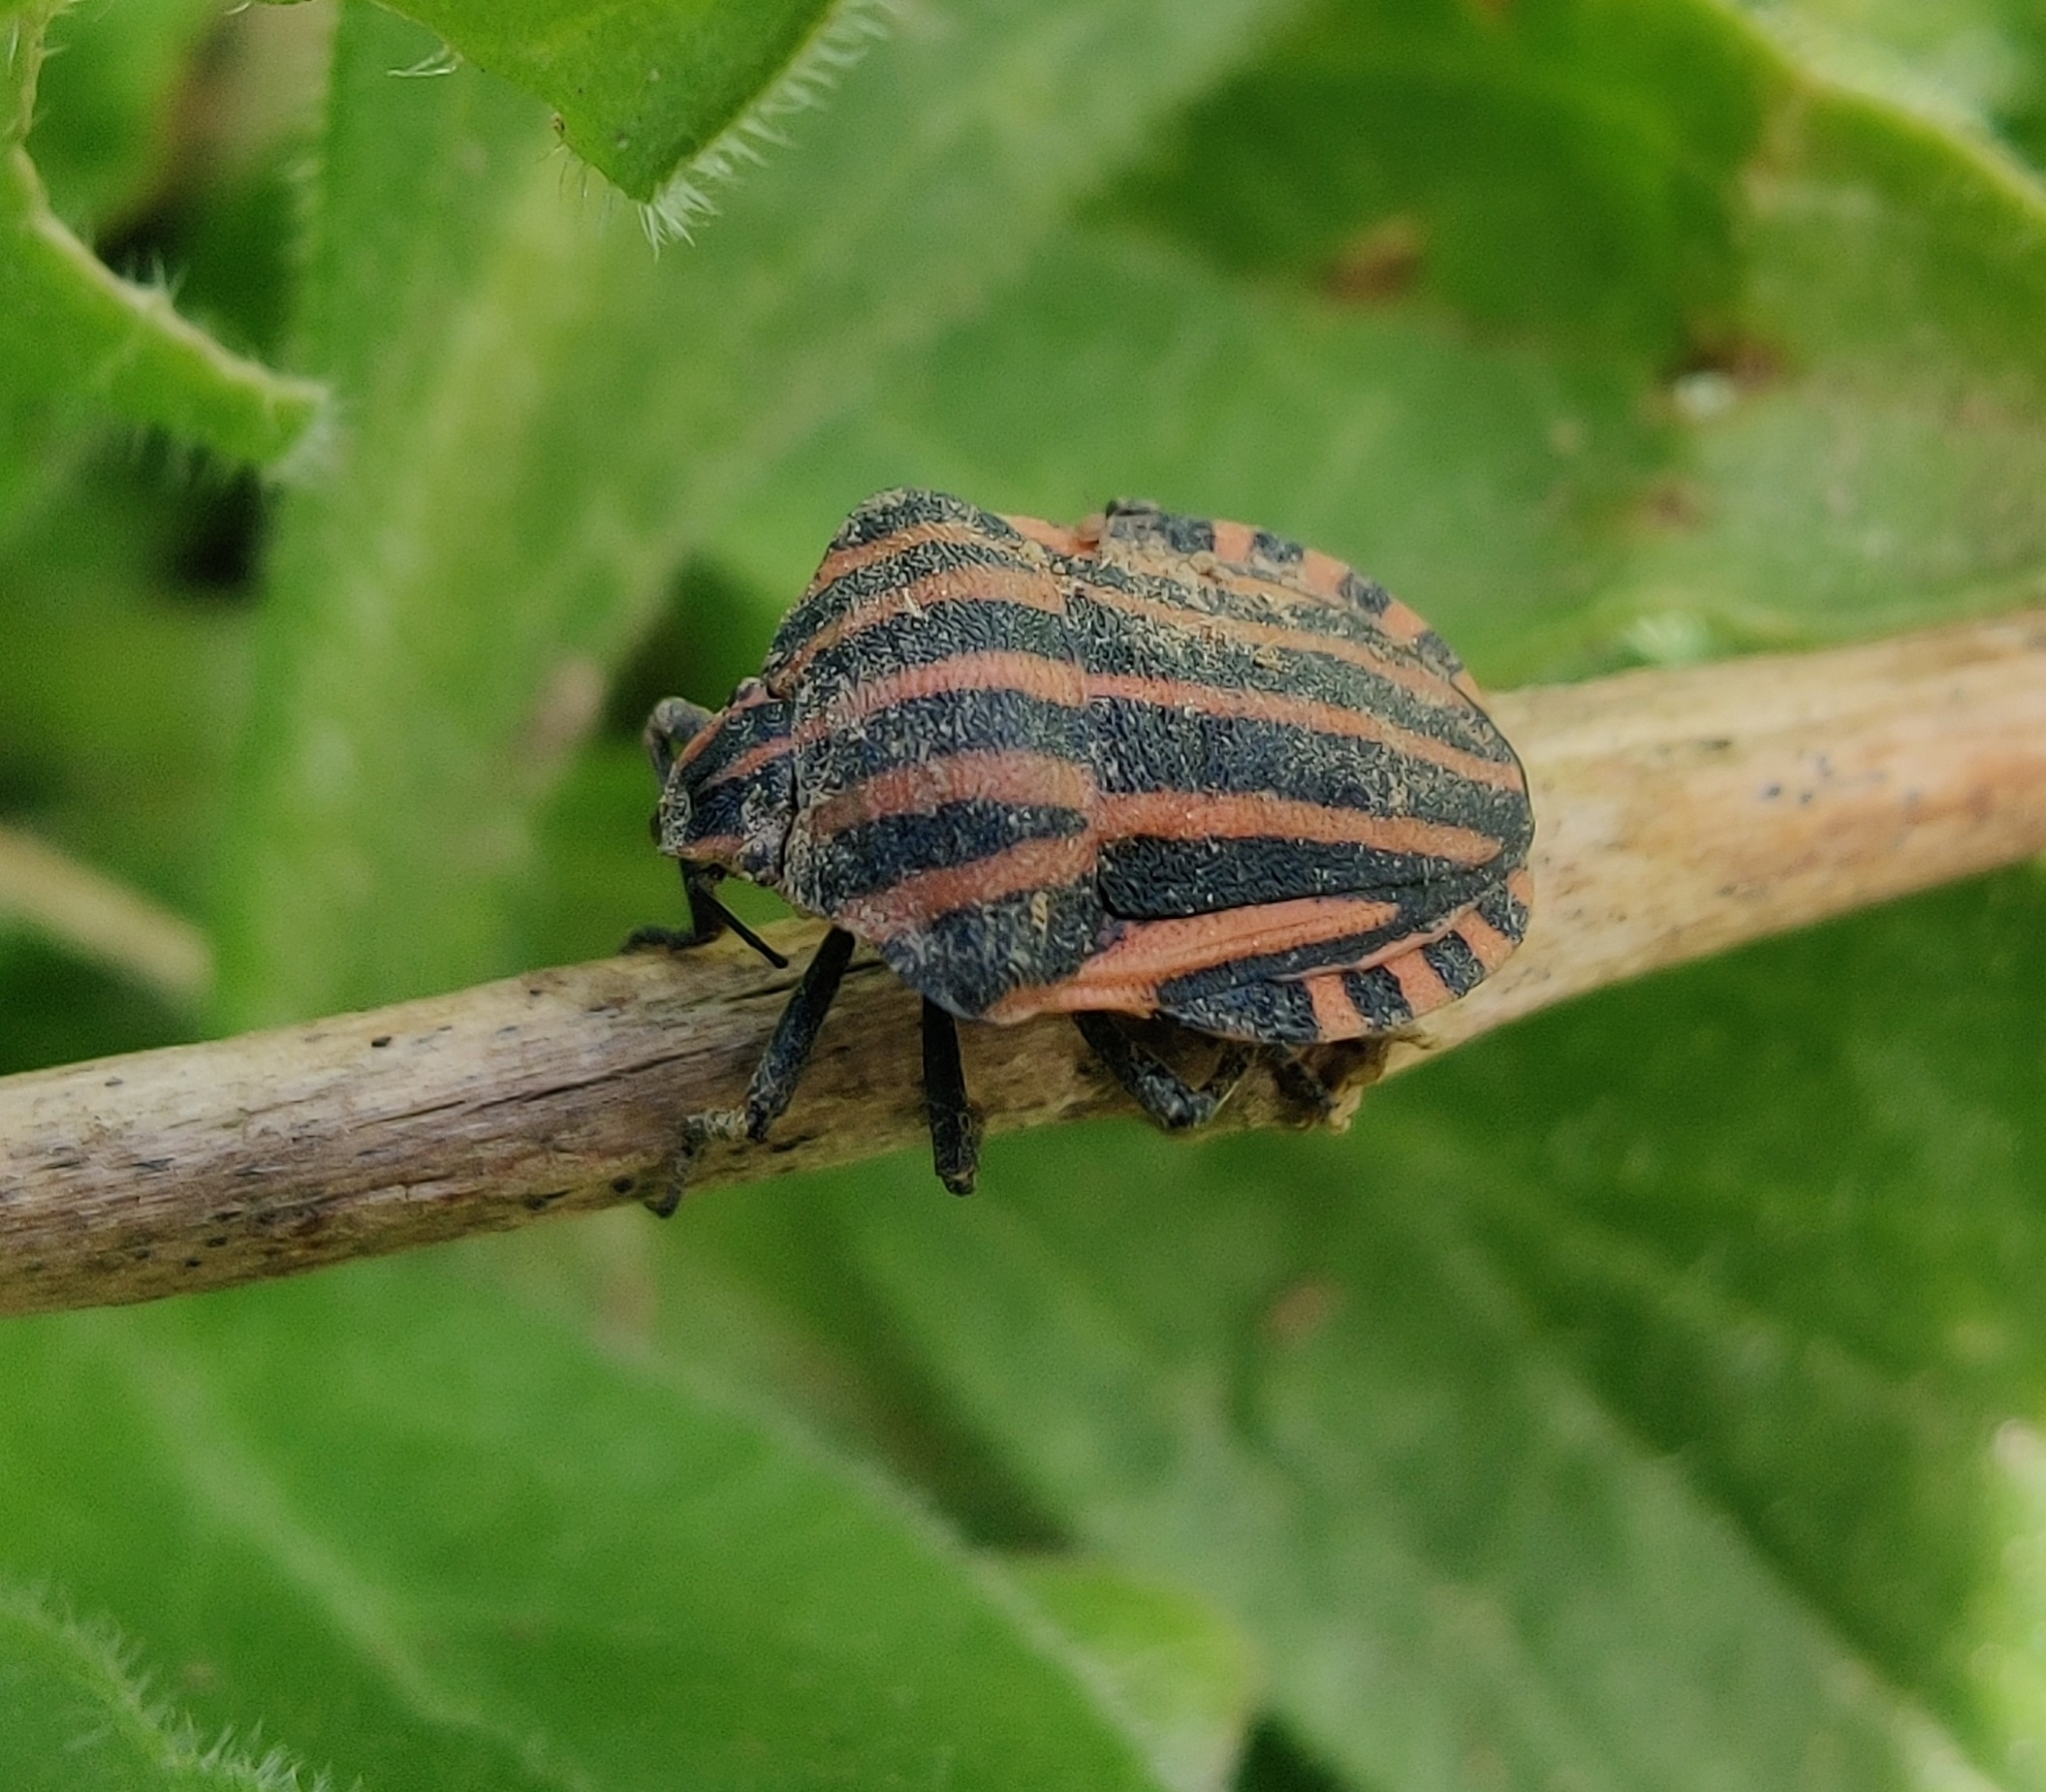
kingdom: Animalia
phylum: Arthropoda
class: Insecta
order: Hemiptera
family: Pentatomidae
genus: Graphosoma
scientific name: Graphosoma italicum
